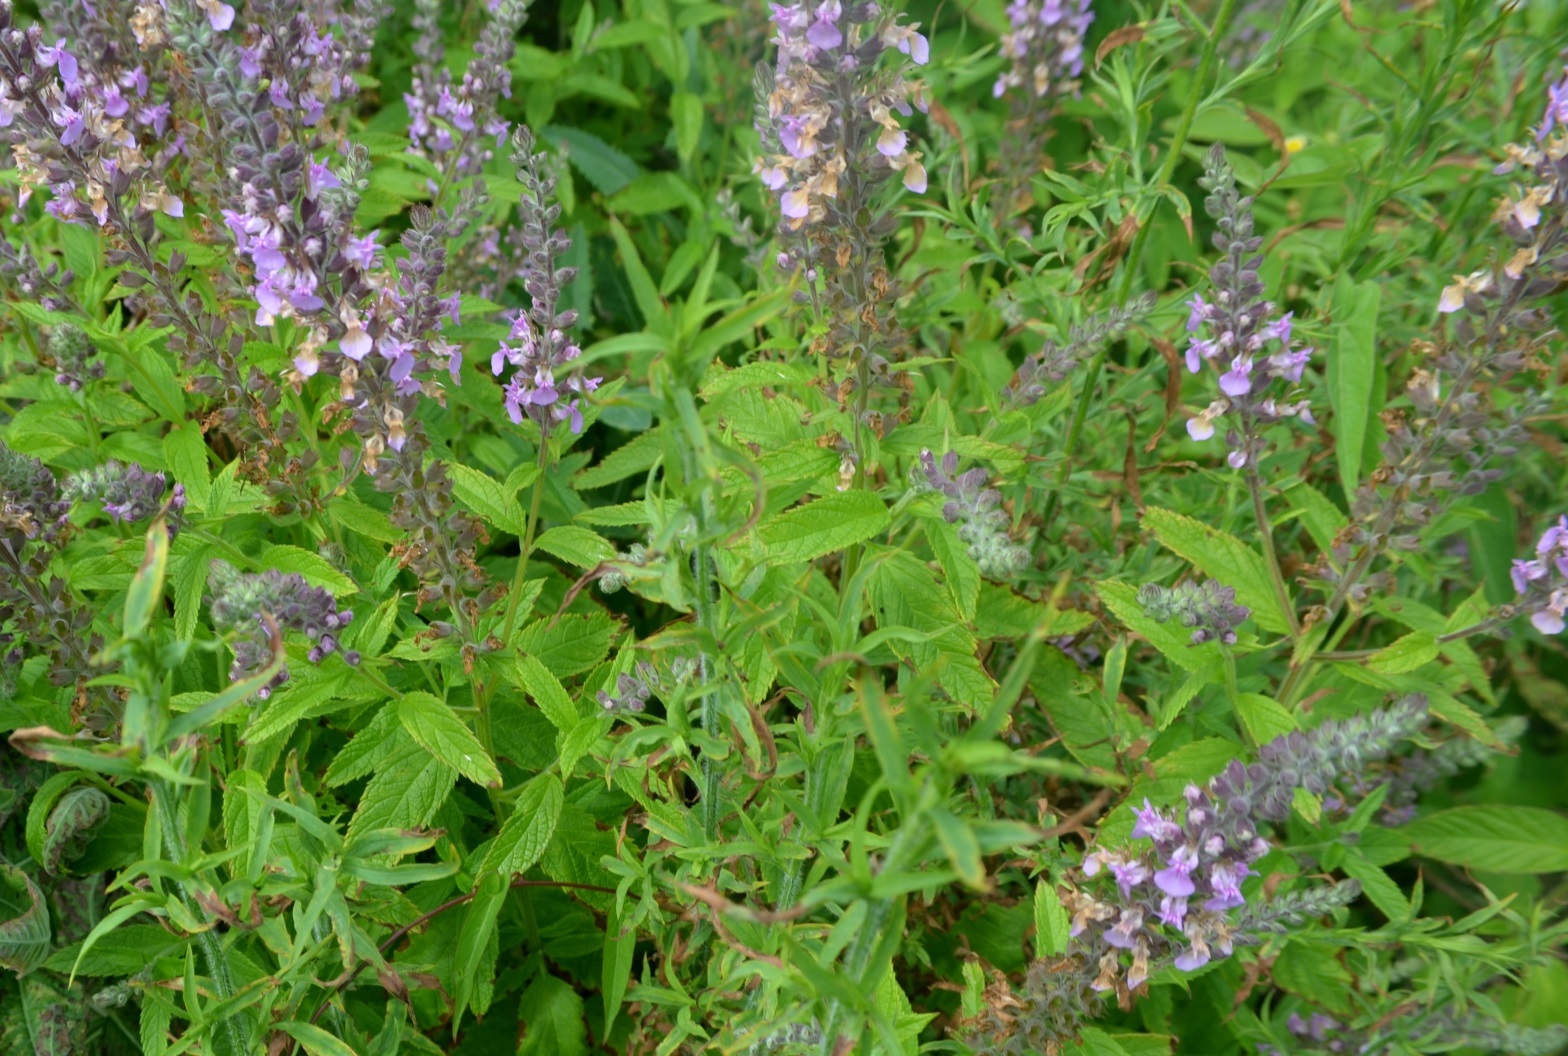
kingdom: Plantae
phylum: Tracheophyta
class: Magnoliopsida
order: Lamiales
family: Lamiaceae
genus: Teucrium
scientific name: Teucrium canadense
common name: American germander
